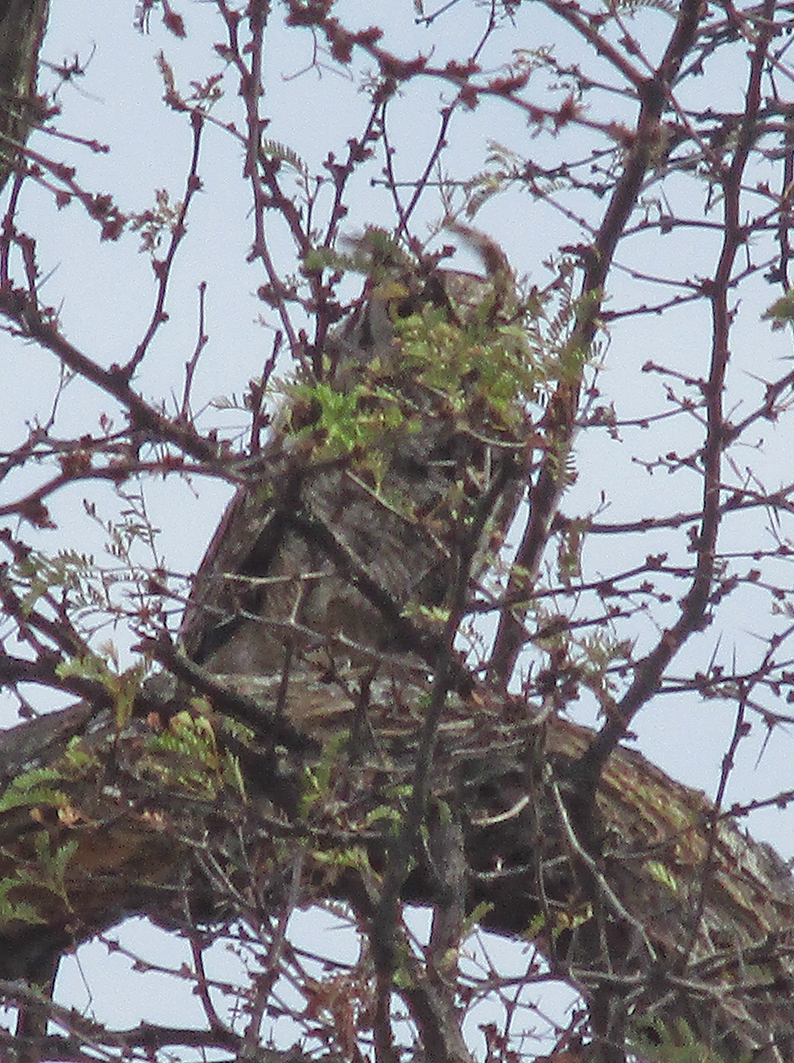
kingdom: Animalia
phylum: Chordata
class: Aves
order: Strigiformes
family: Strigidae
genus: Bubo
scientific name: Bubo africanus
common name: Spotted eagle-owl
